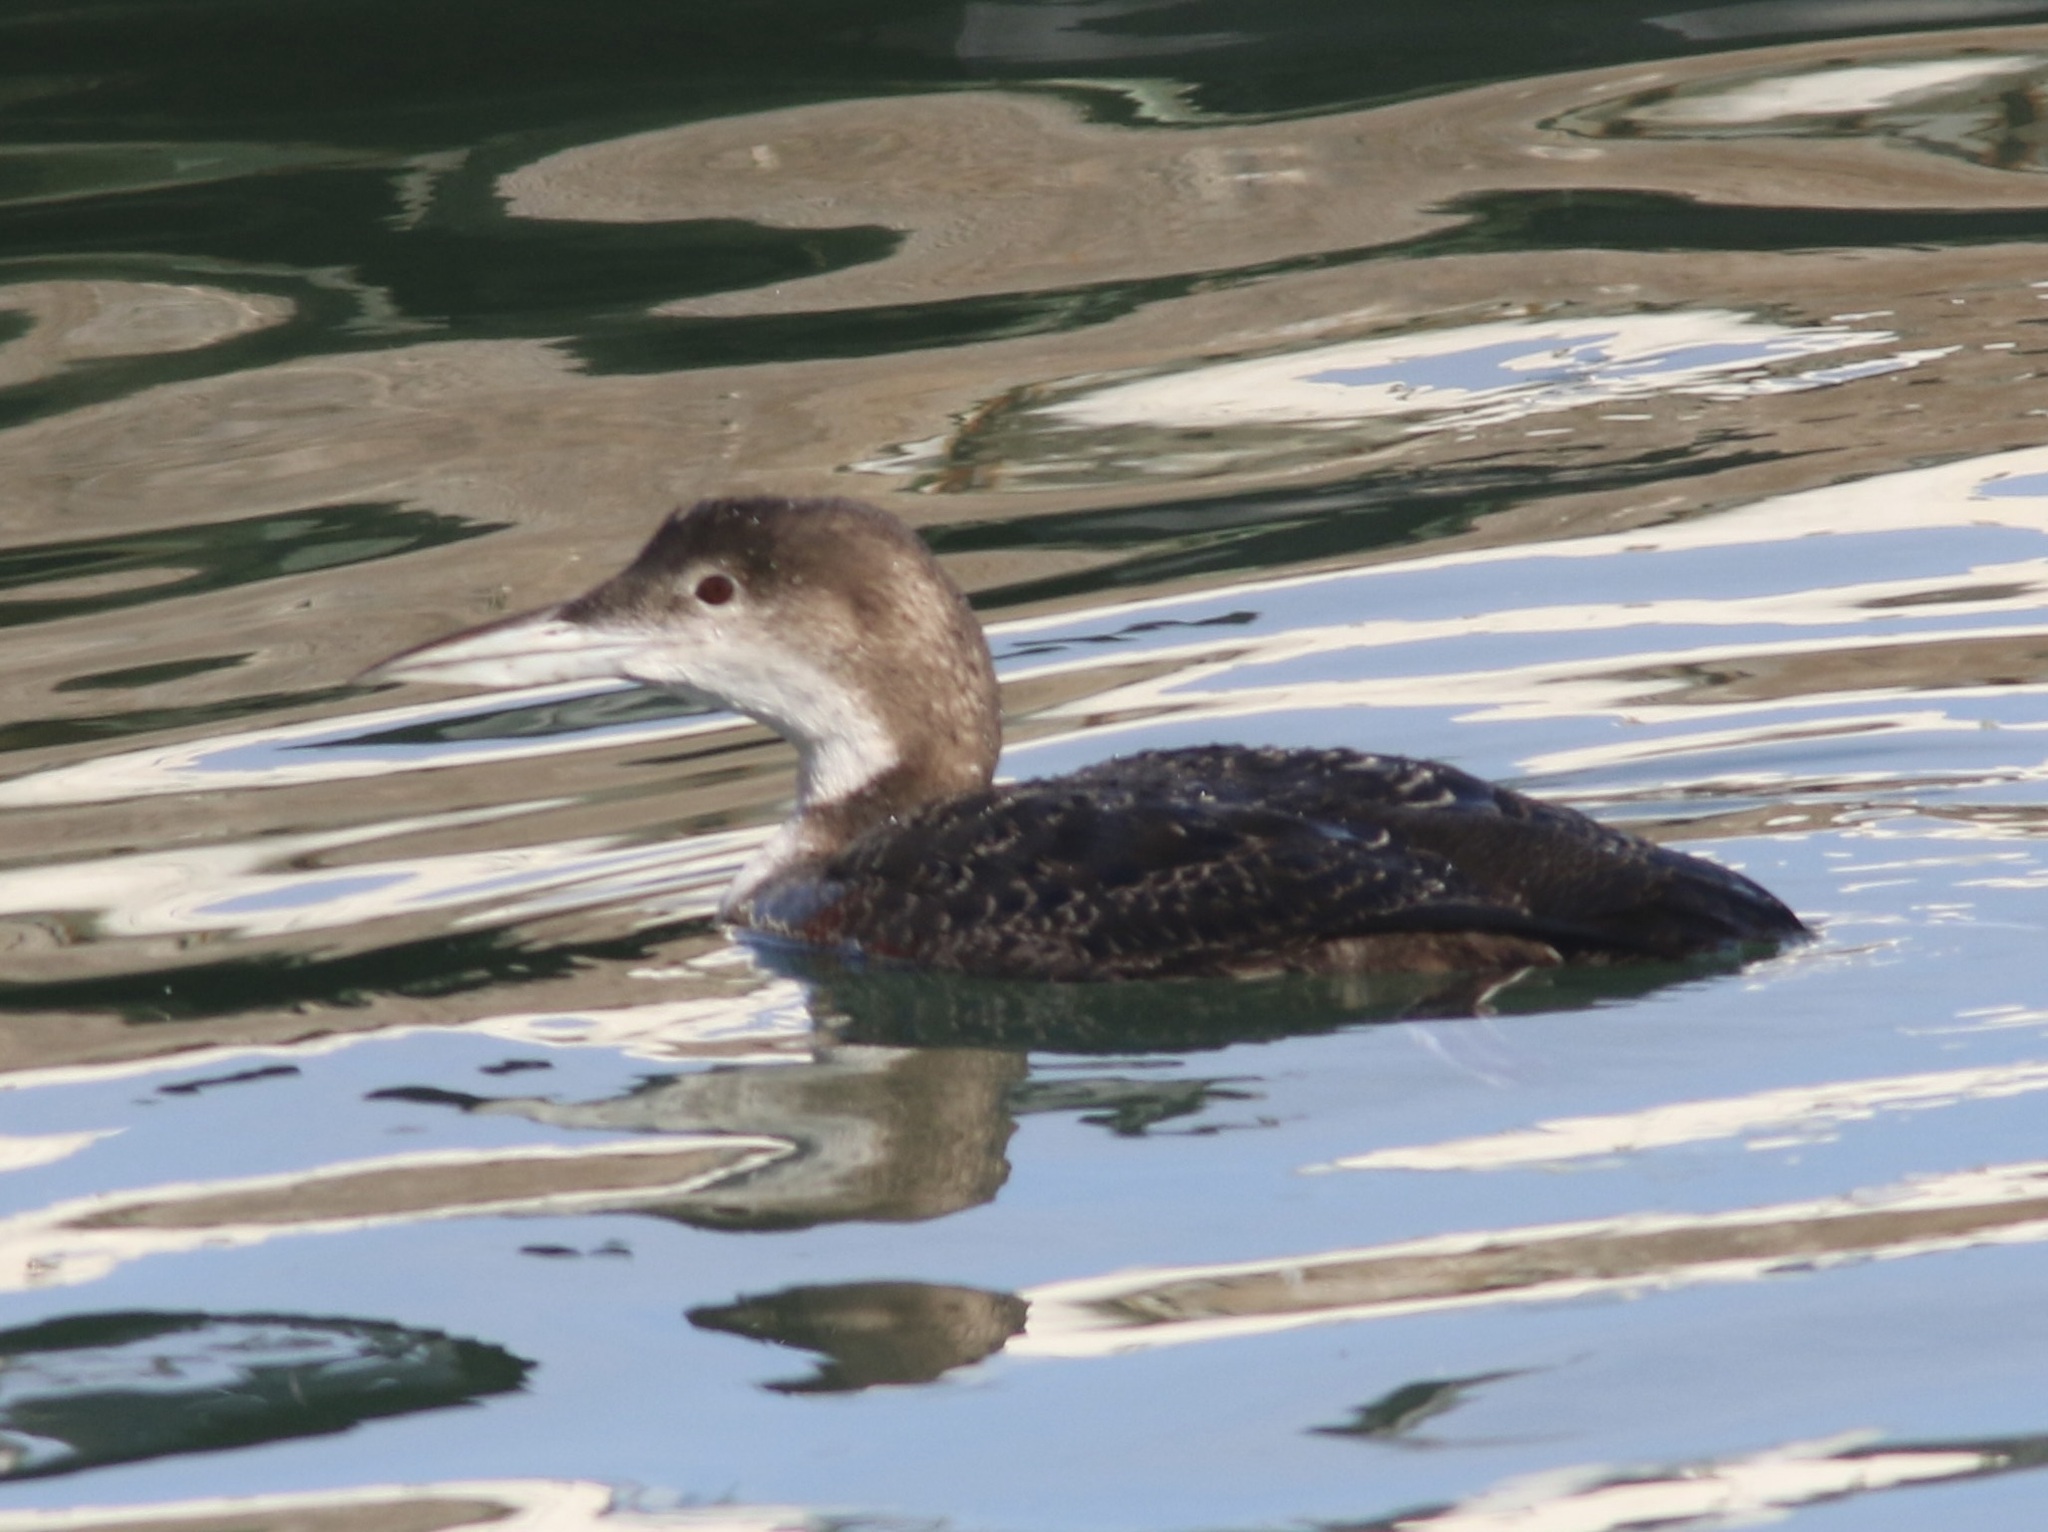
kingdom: Animalia
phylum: Chordata
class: Aves
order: Gaviiformes
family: Gaviidae
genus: Gavia
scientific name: Gavia immer
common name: Common loon
